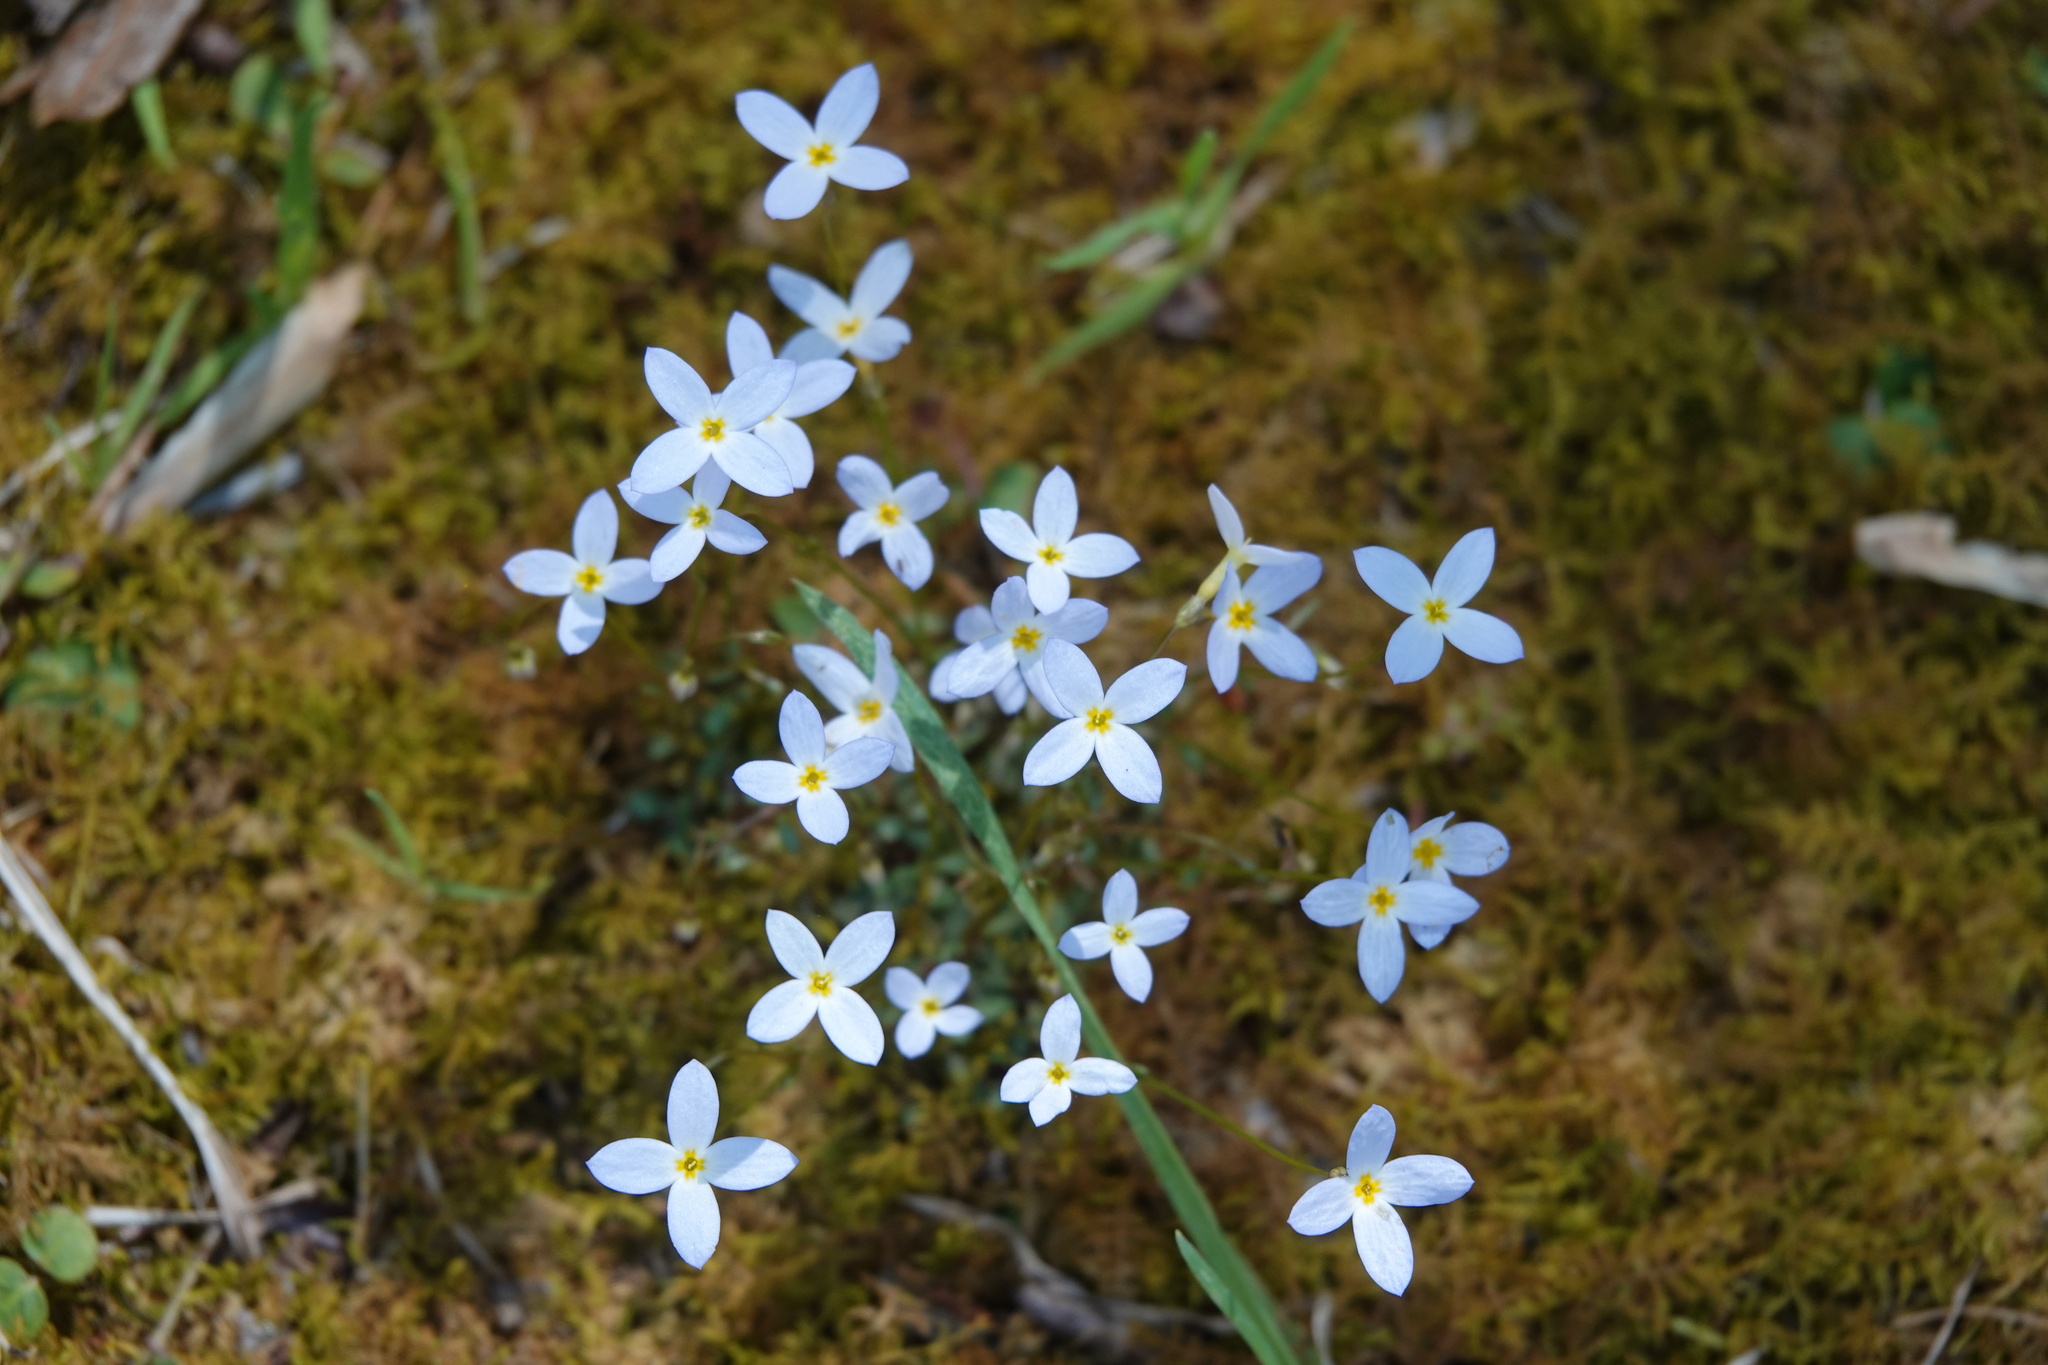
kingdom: Plantae
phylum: Tracheophyta
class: Magnoliopsida
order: Gentianales
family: Rubiaceae
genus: Houstonia
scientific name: Houstonia caerulea
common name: Bluets
